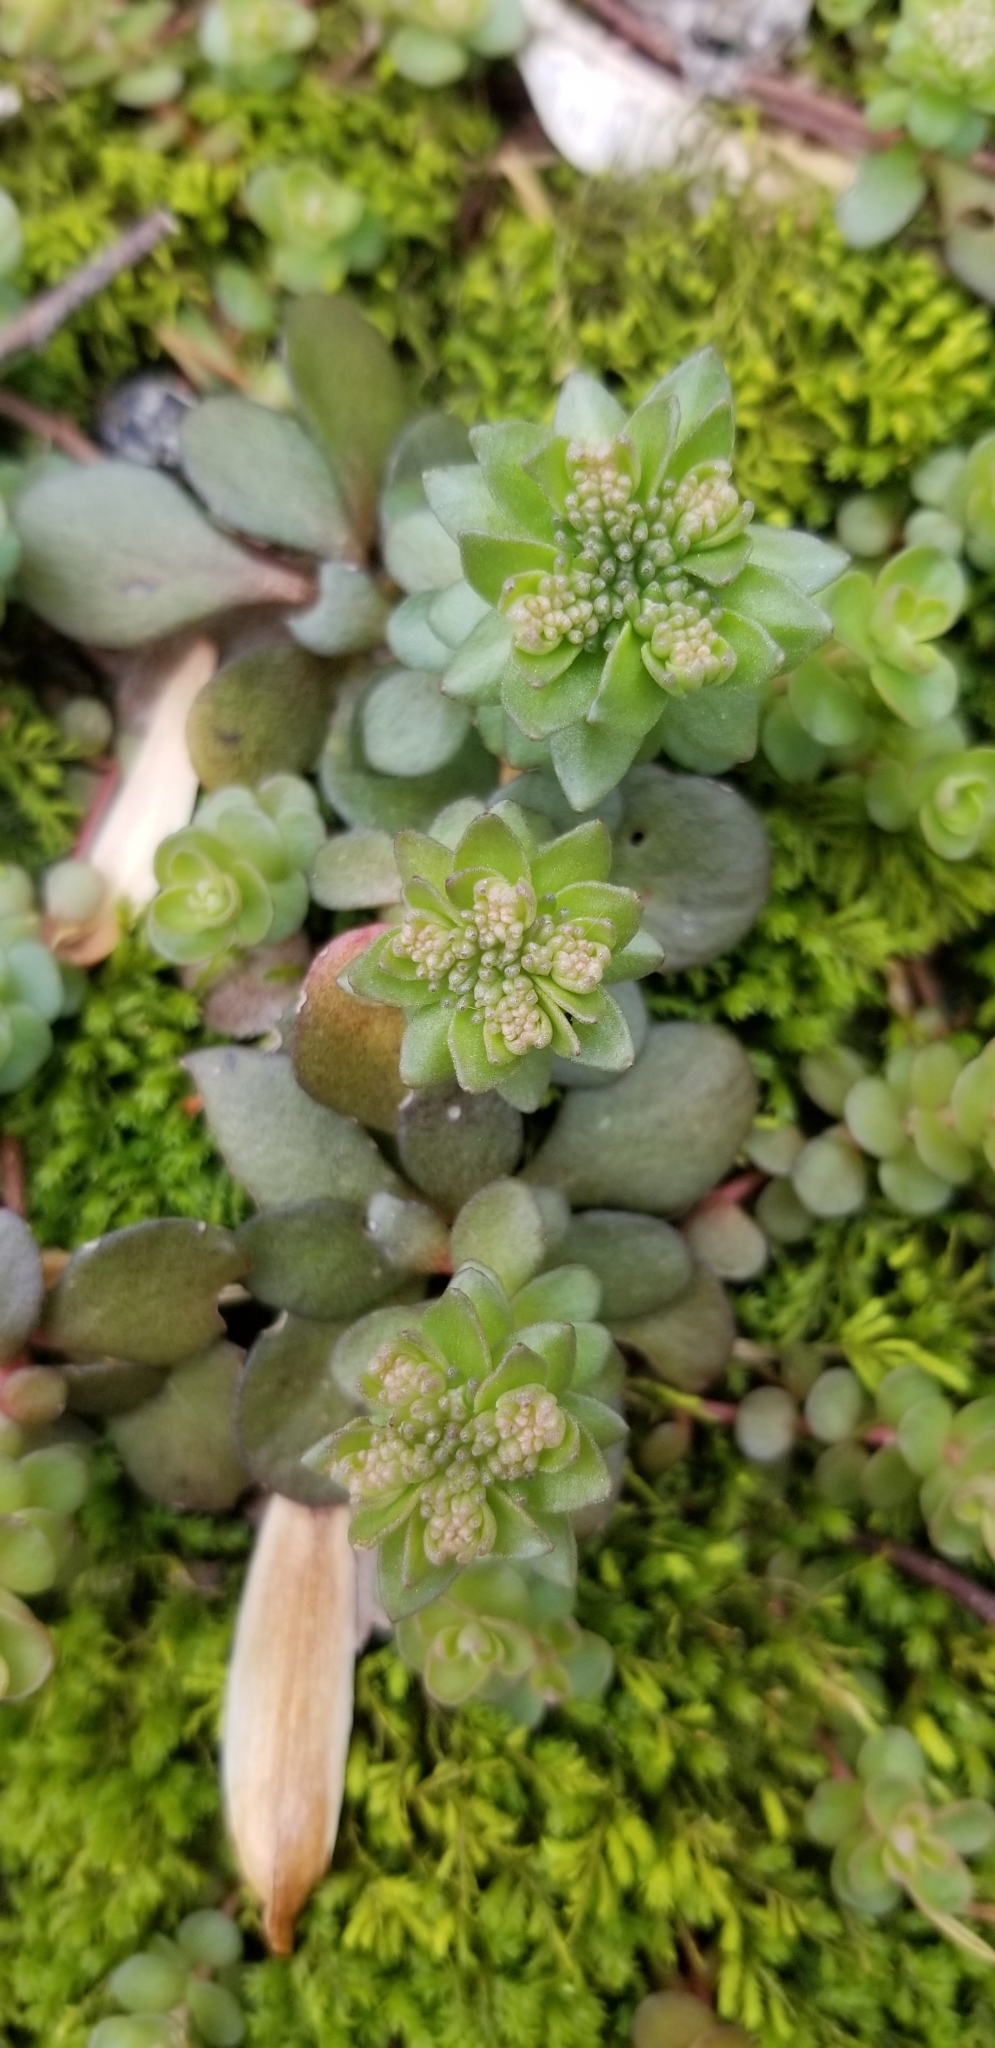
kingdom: Plantae
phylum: Tracheophyta
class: Magnoliopsida
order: Saxifragales
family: Crassulaceae
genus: Sedum
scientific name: Sedum ternatum
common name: Wild stonecrop
